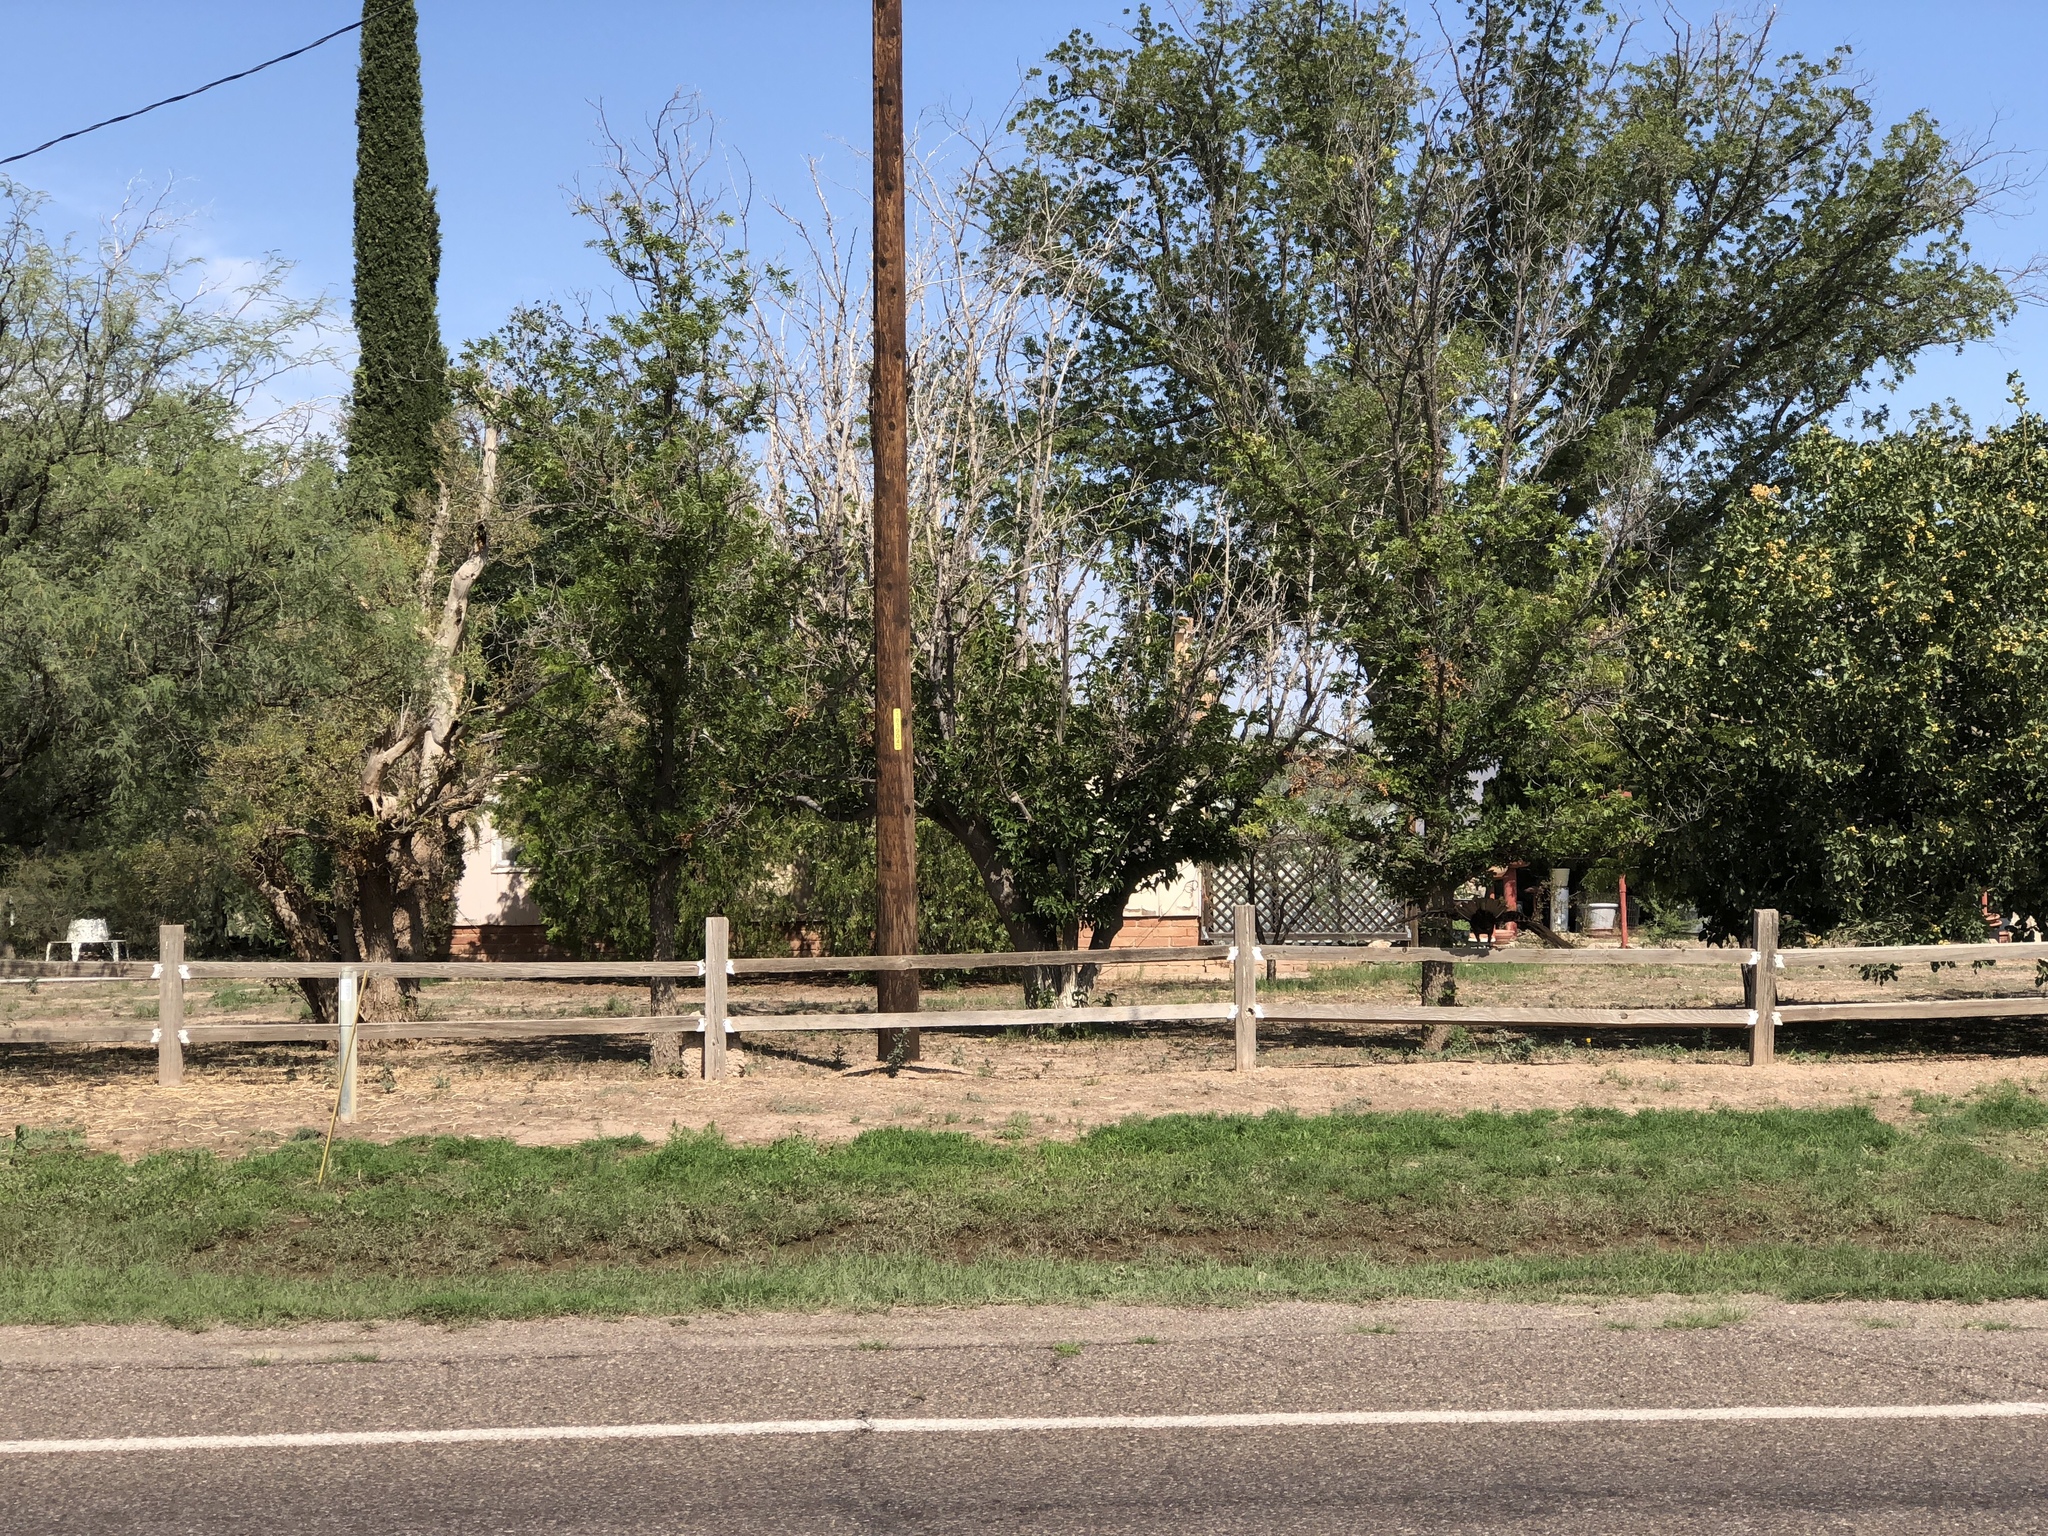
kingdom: Animalia
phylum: Chordata
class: Aves
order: Accipitriformes
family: Cathartidae
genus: Cathartes
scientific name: Cathartes aura
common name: Turkey vulture
